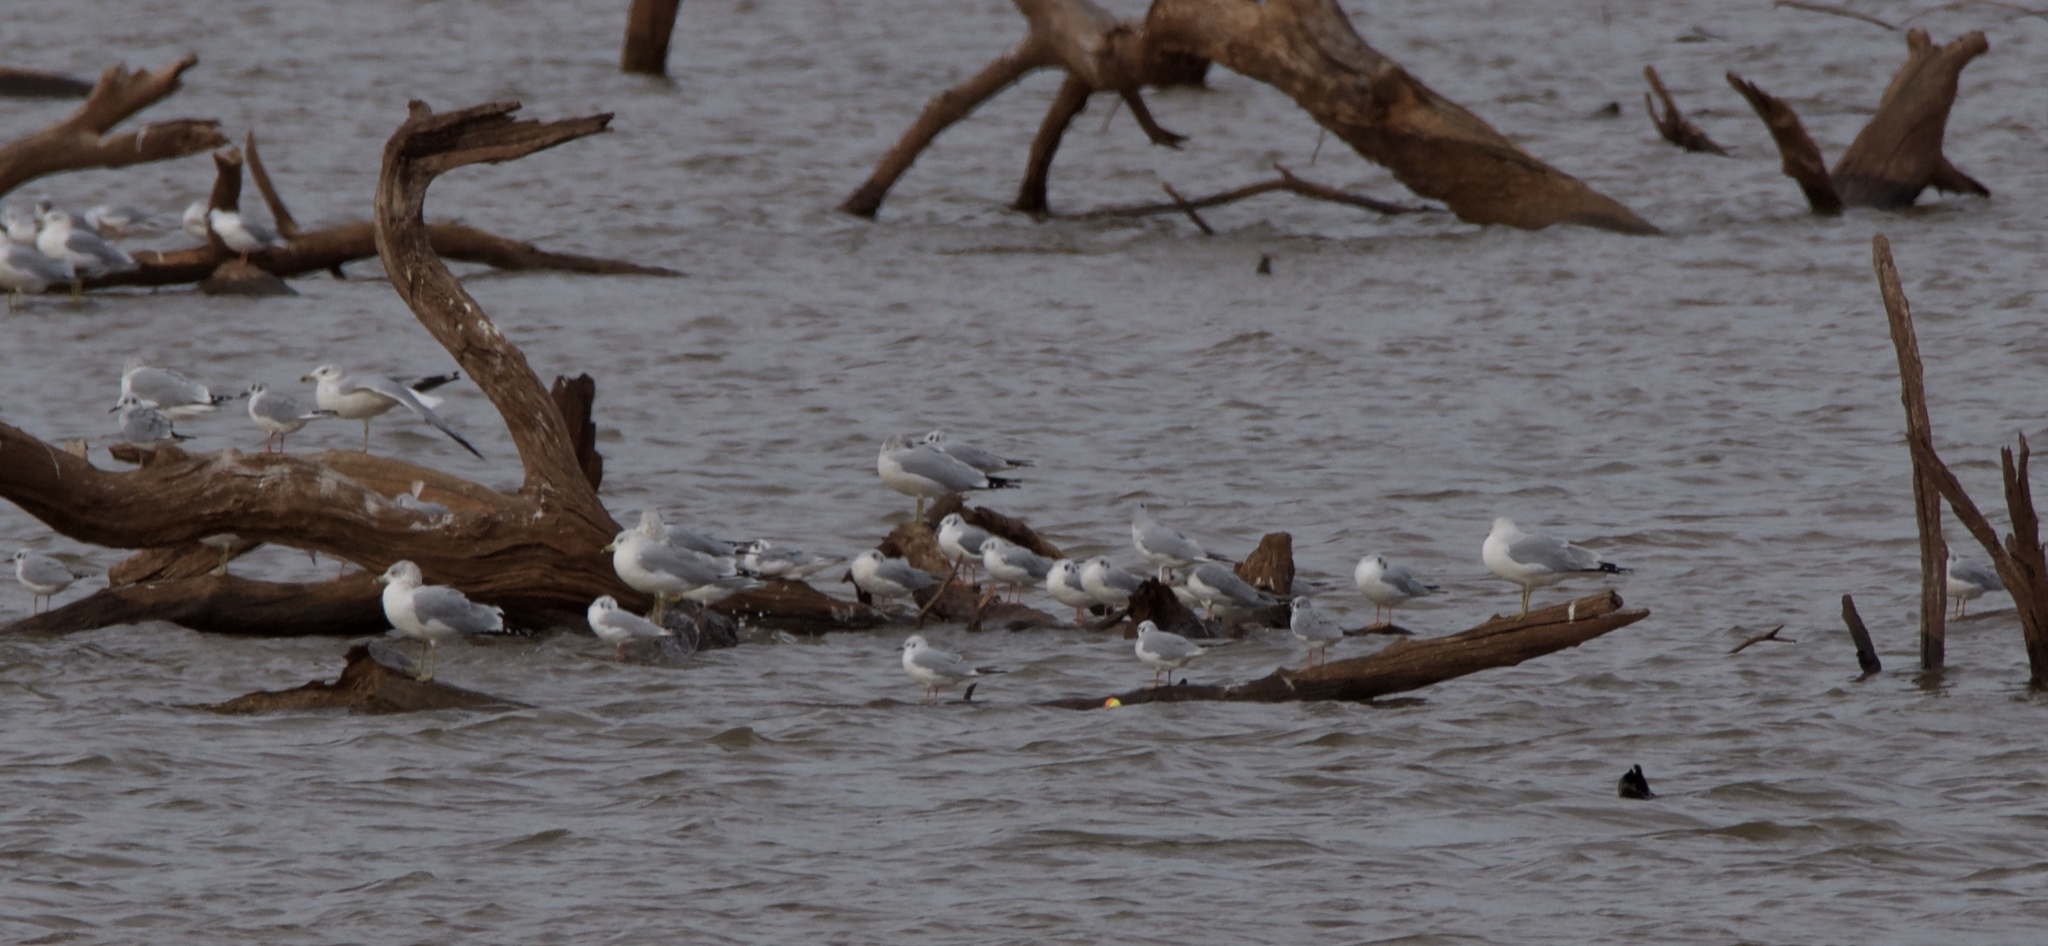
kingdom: Animalia
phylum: Chordata
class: Aves
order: Charadriiformes
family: Laridae
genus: Larus
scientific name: Larus delawarensis
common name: Ring-billed gull
